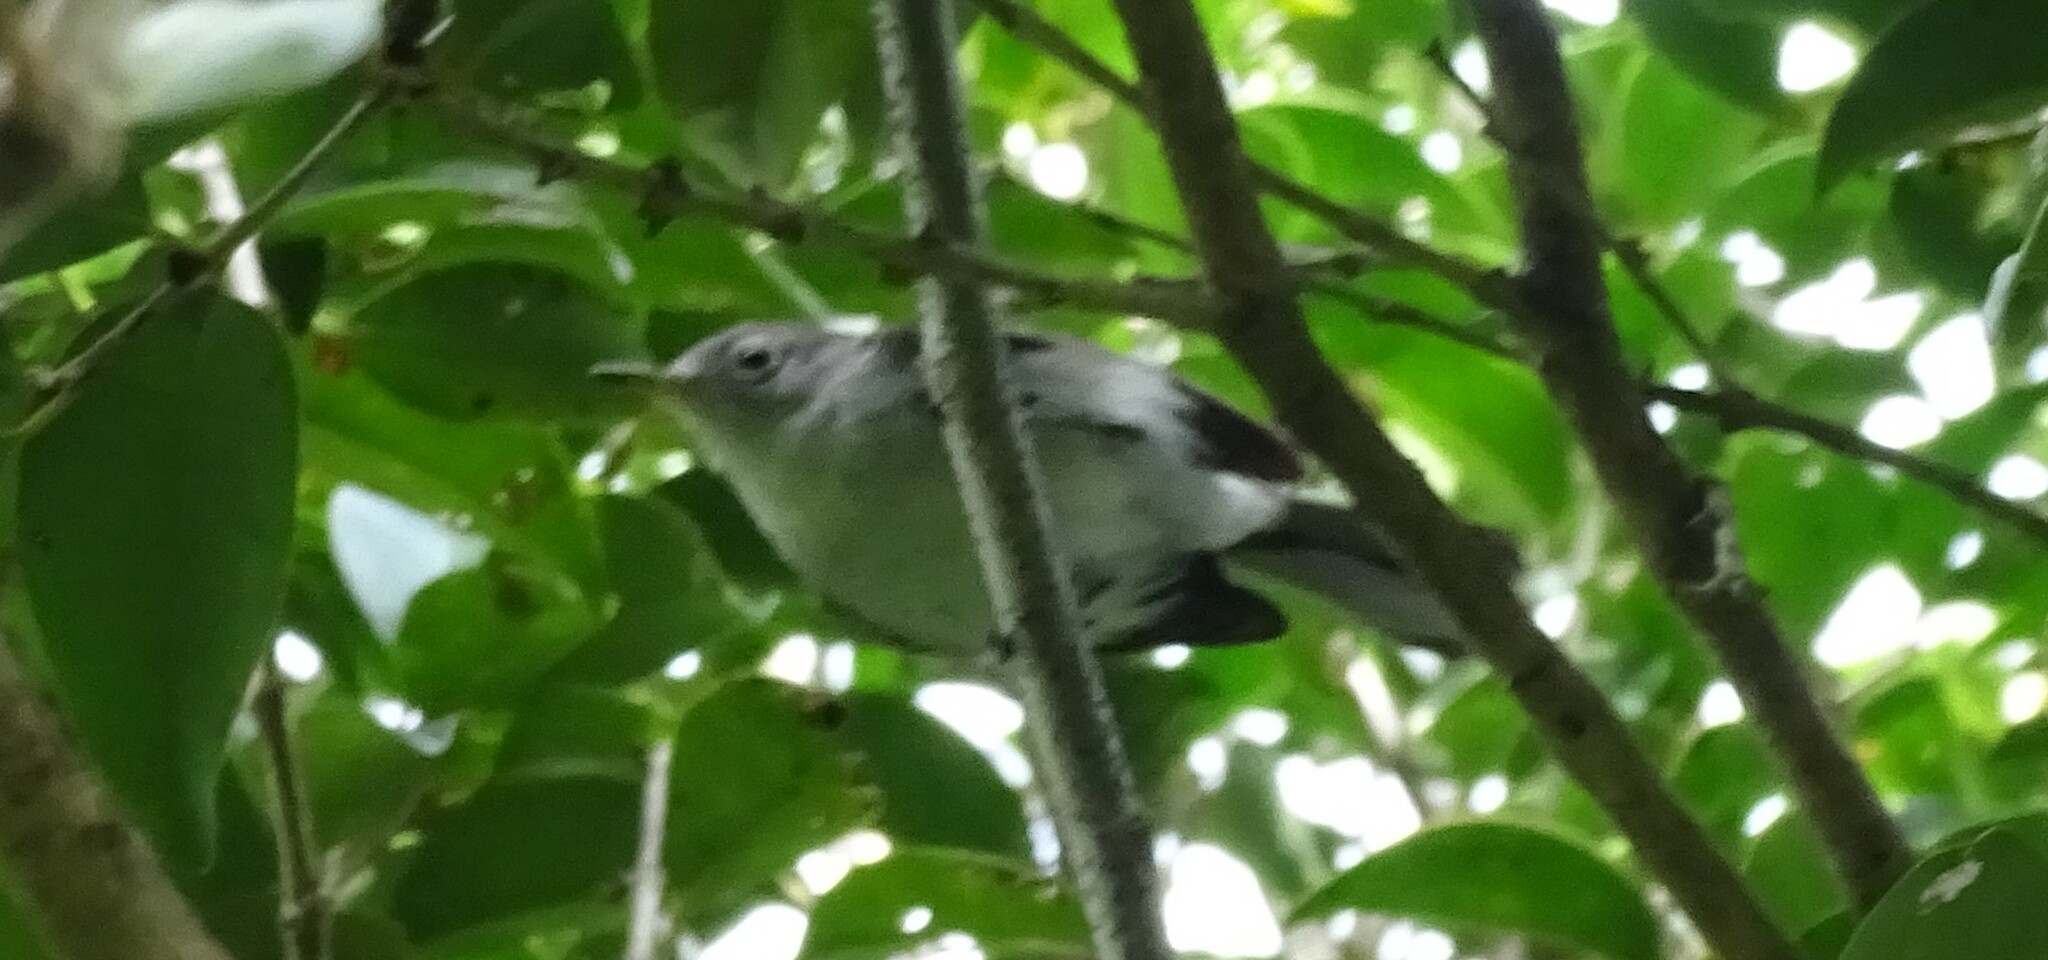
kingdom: Animalia
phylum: Chordata
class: Aves
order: Passeriformes
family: Polioptilidae
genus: Polioptila
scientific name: Polioptila caerulea
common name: Blue-gray gnatcatcher
